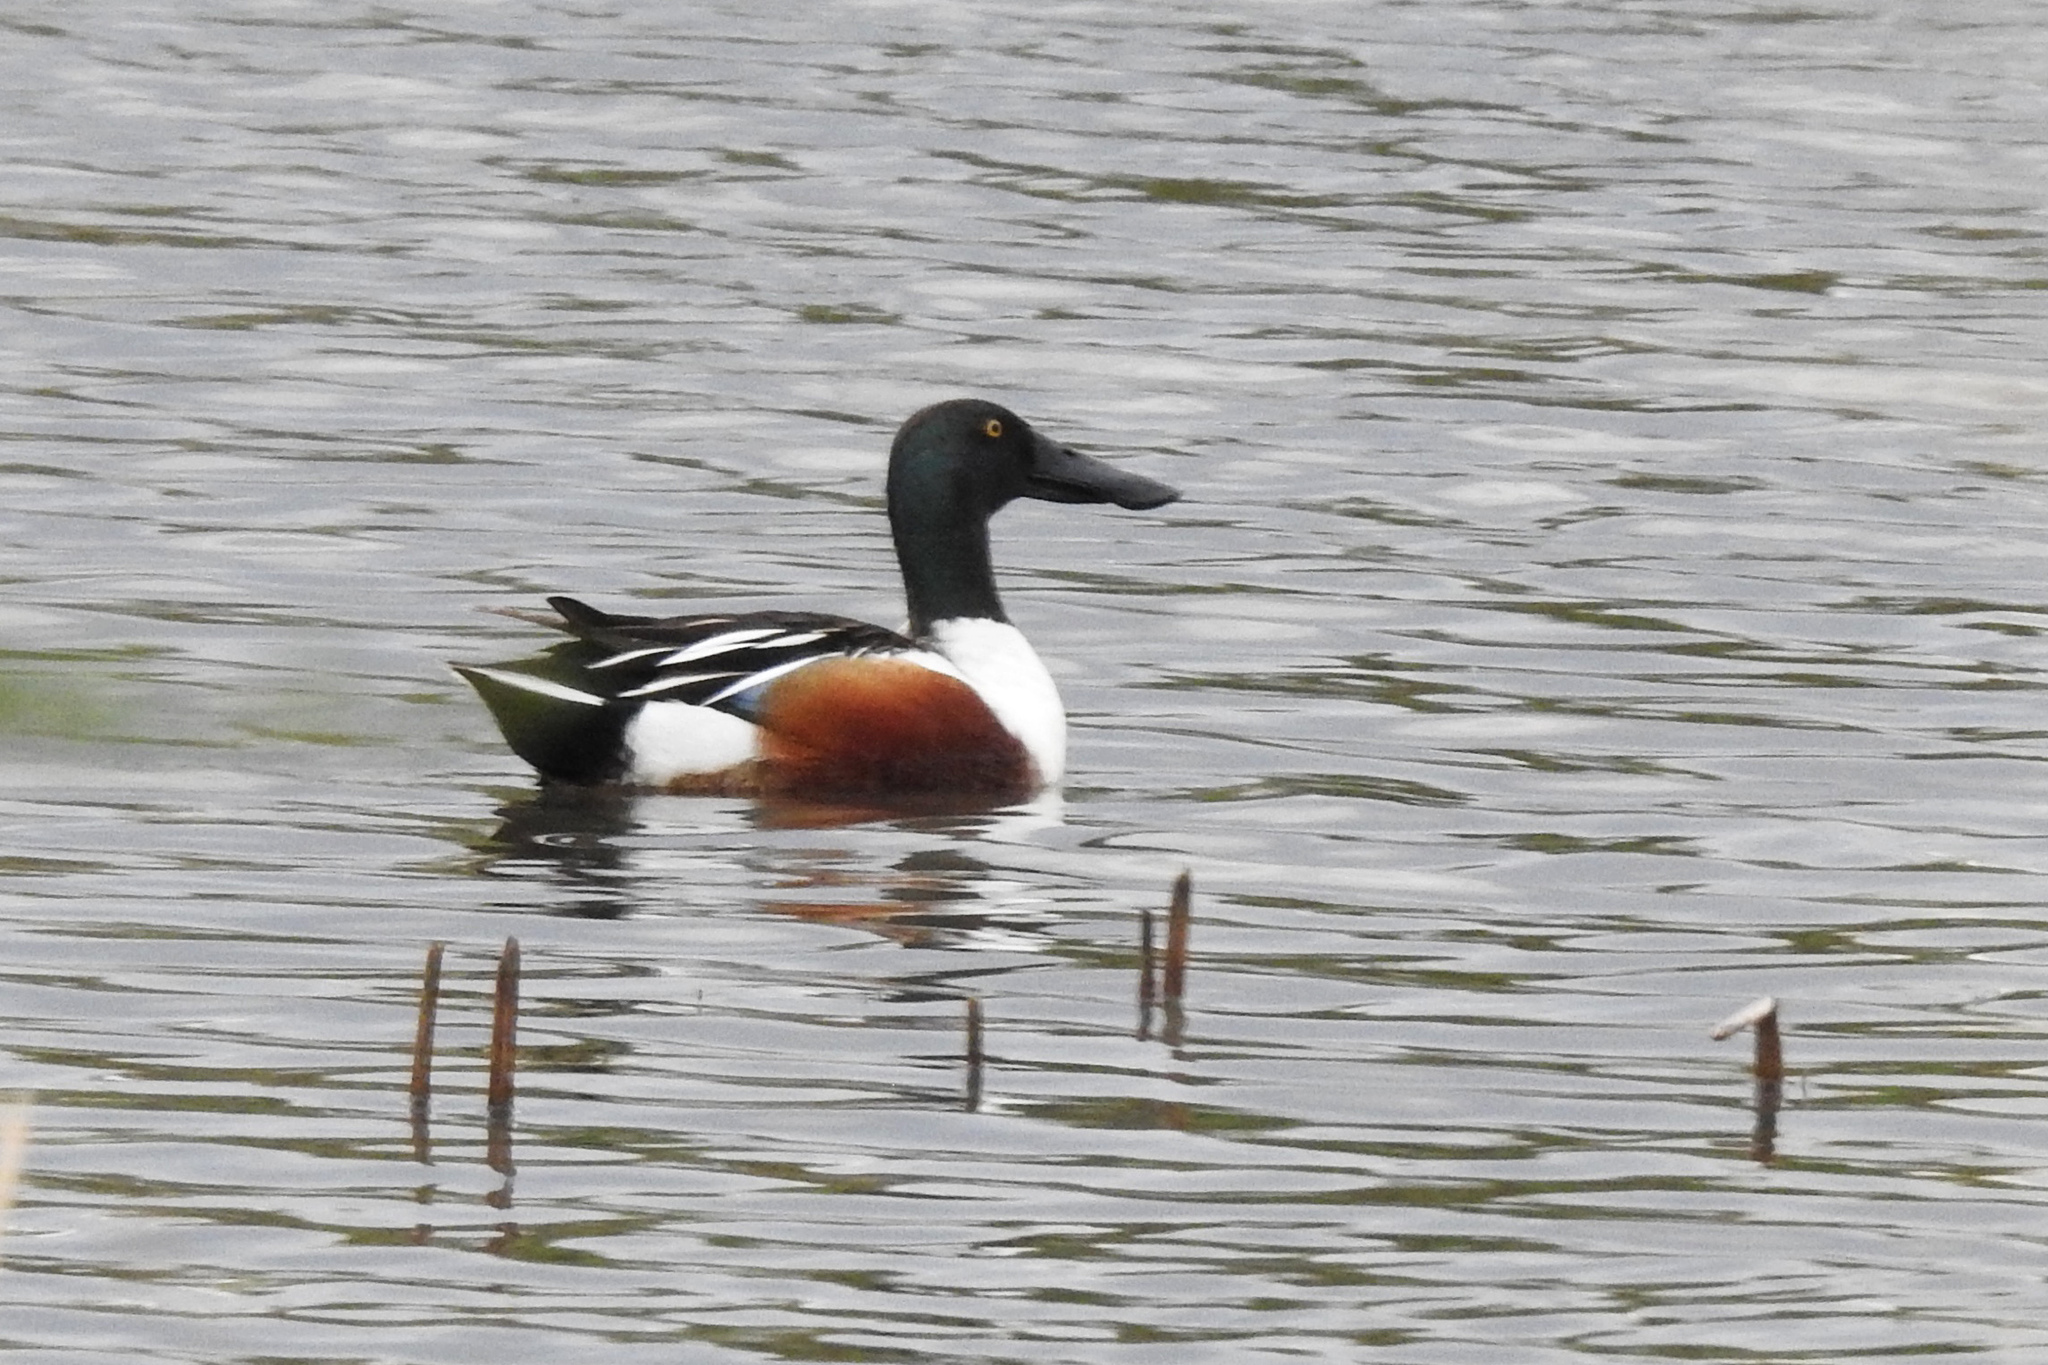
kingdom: Animalia
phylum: Chordata
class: Aves
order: Anseriformes
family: Anatidae
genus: Spatula
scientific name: Spatula clypeata
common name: Northern shoveler
